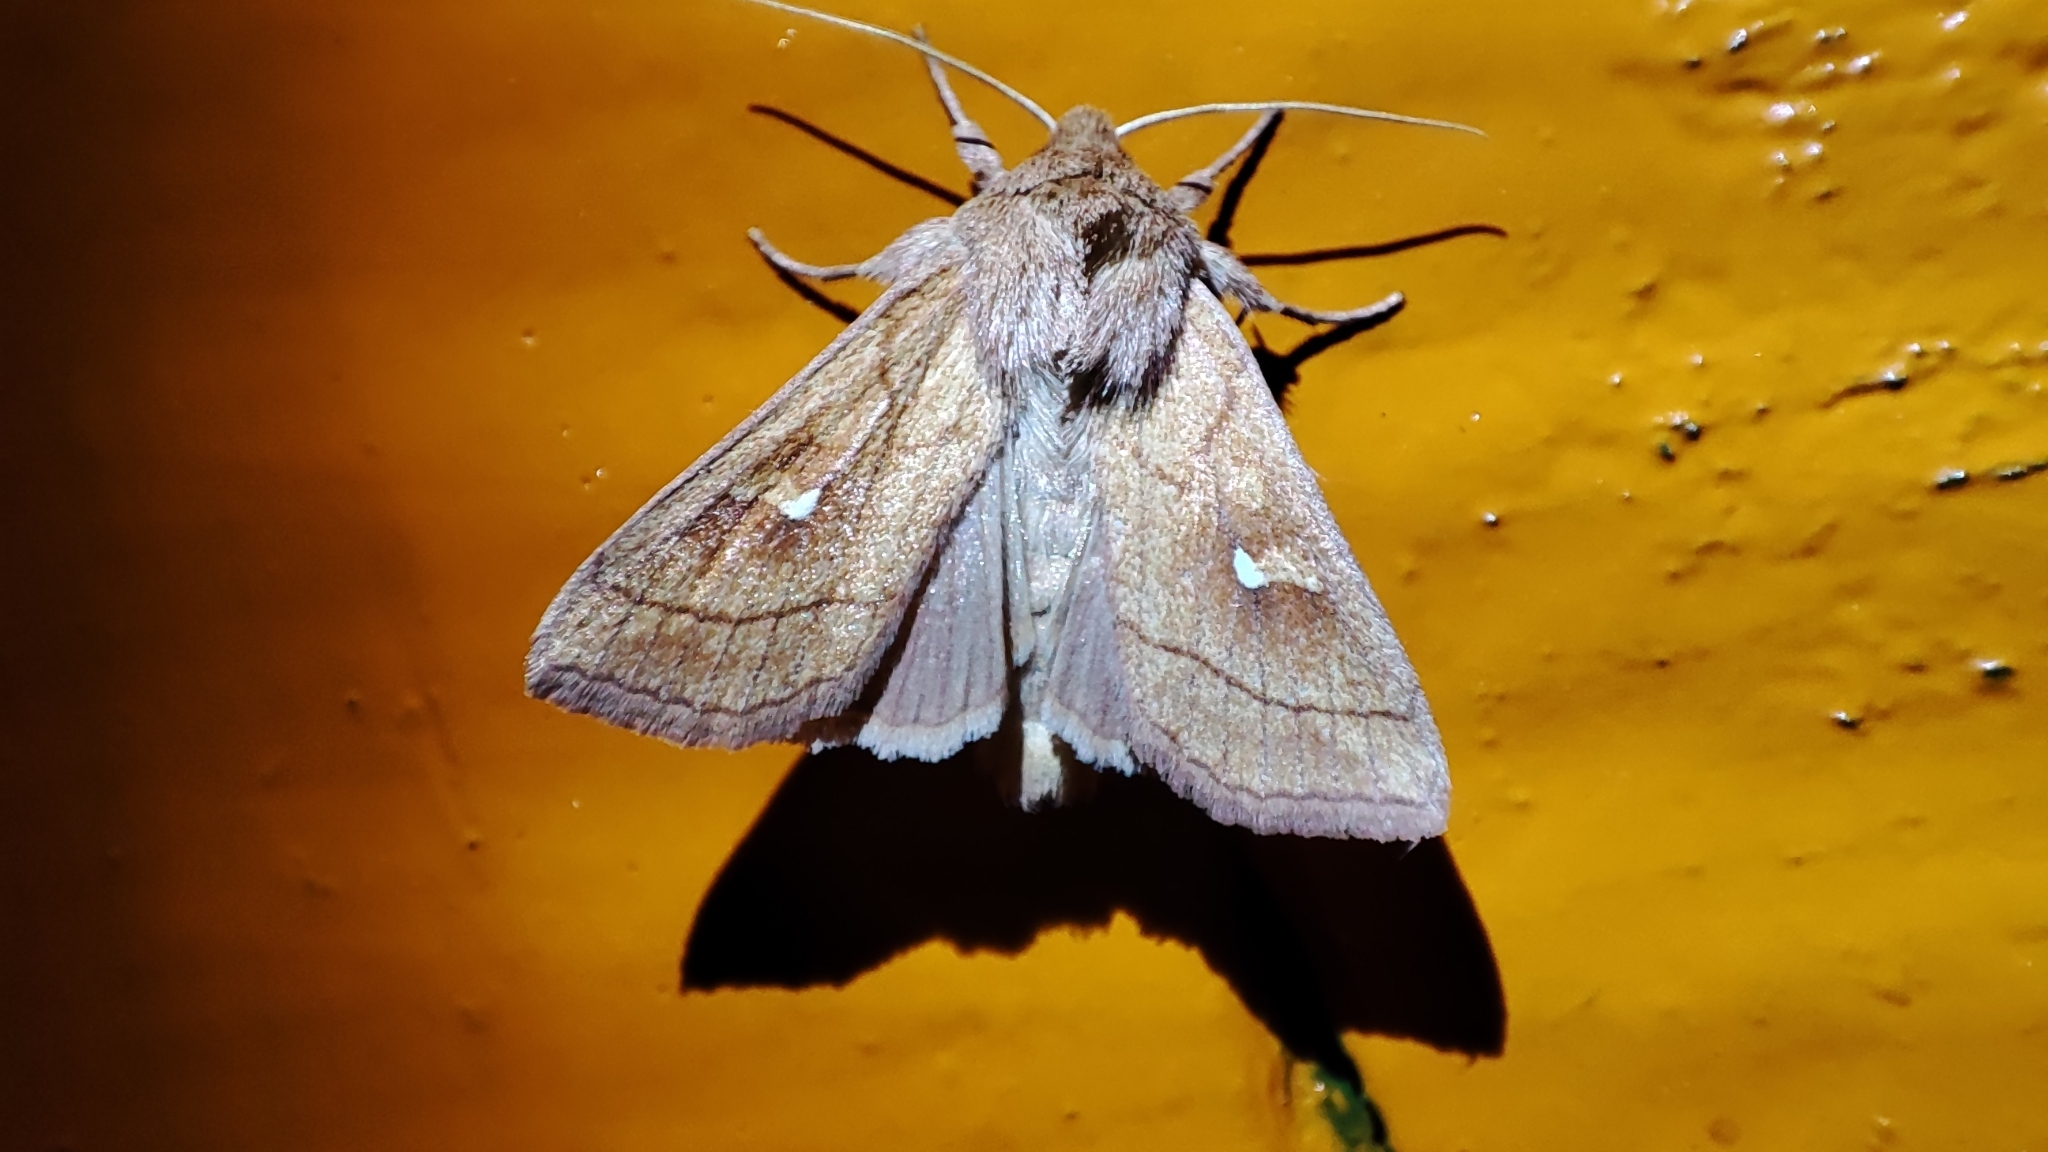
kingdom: Animalia
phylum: Arthropoda
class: Insecta
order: Lepidoptera
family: Noctuidae
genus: Mythimna
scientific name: Mythimna conigera
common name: Brown-line bright-eye
